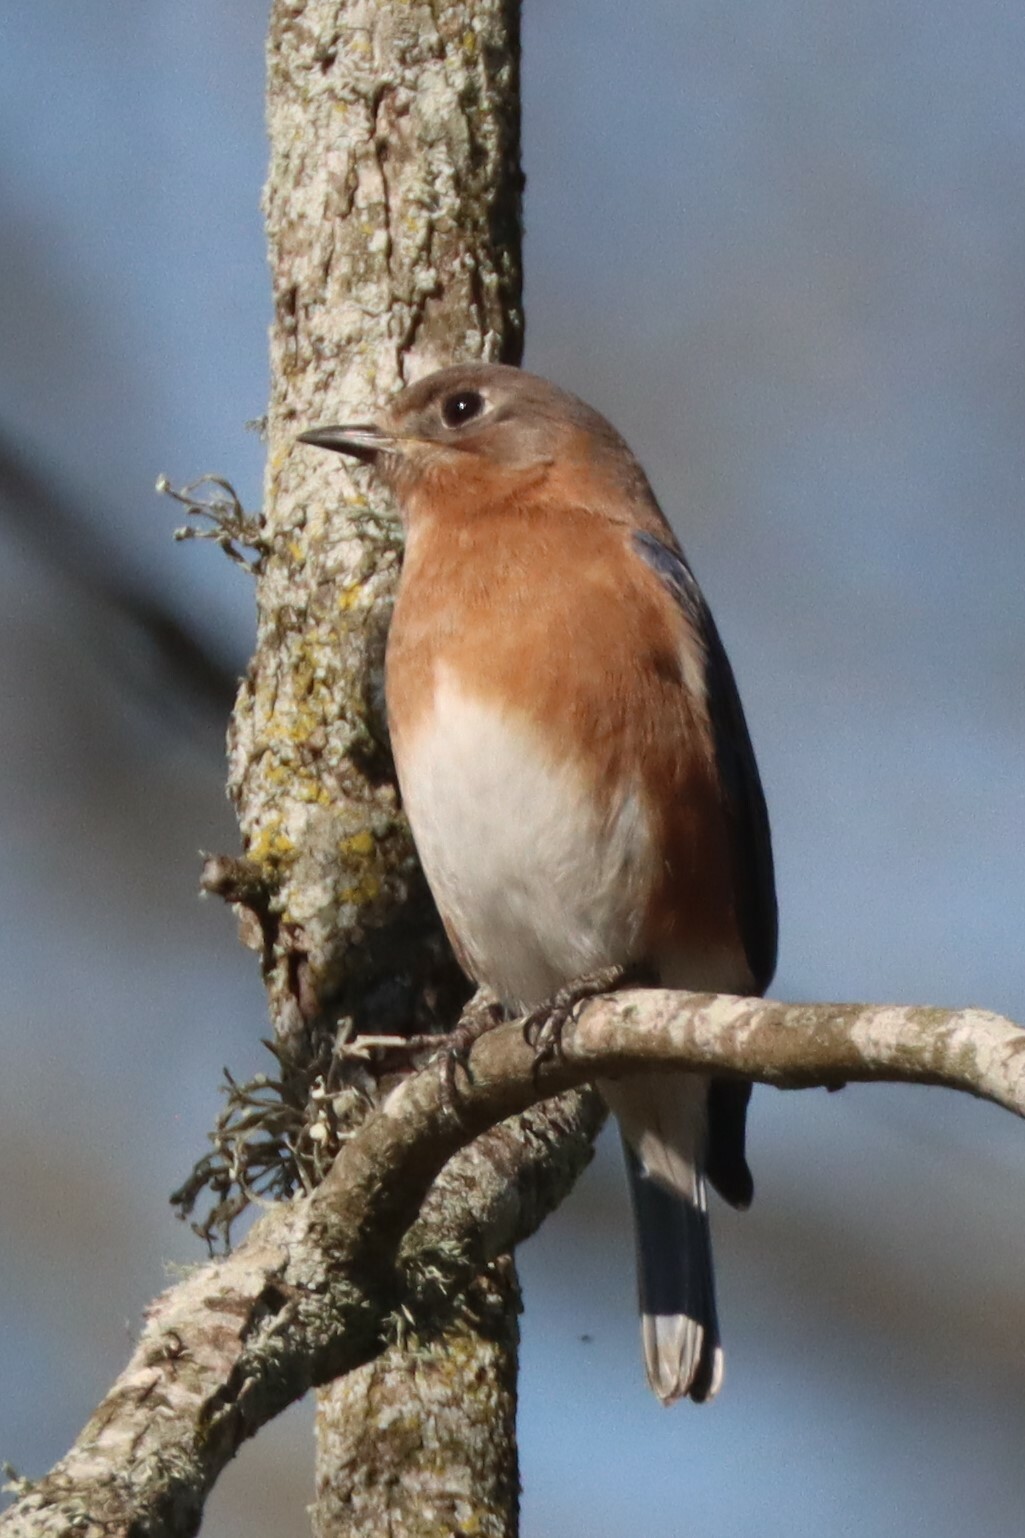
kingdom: Animalia
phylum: Chordata
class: Aves
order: Passeriformes
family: Turdidae
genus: Sialia
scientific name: Sialia sialis
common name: Eastern bluebird
